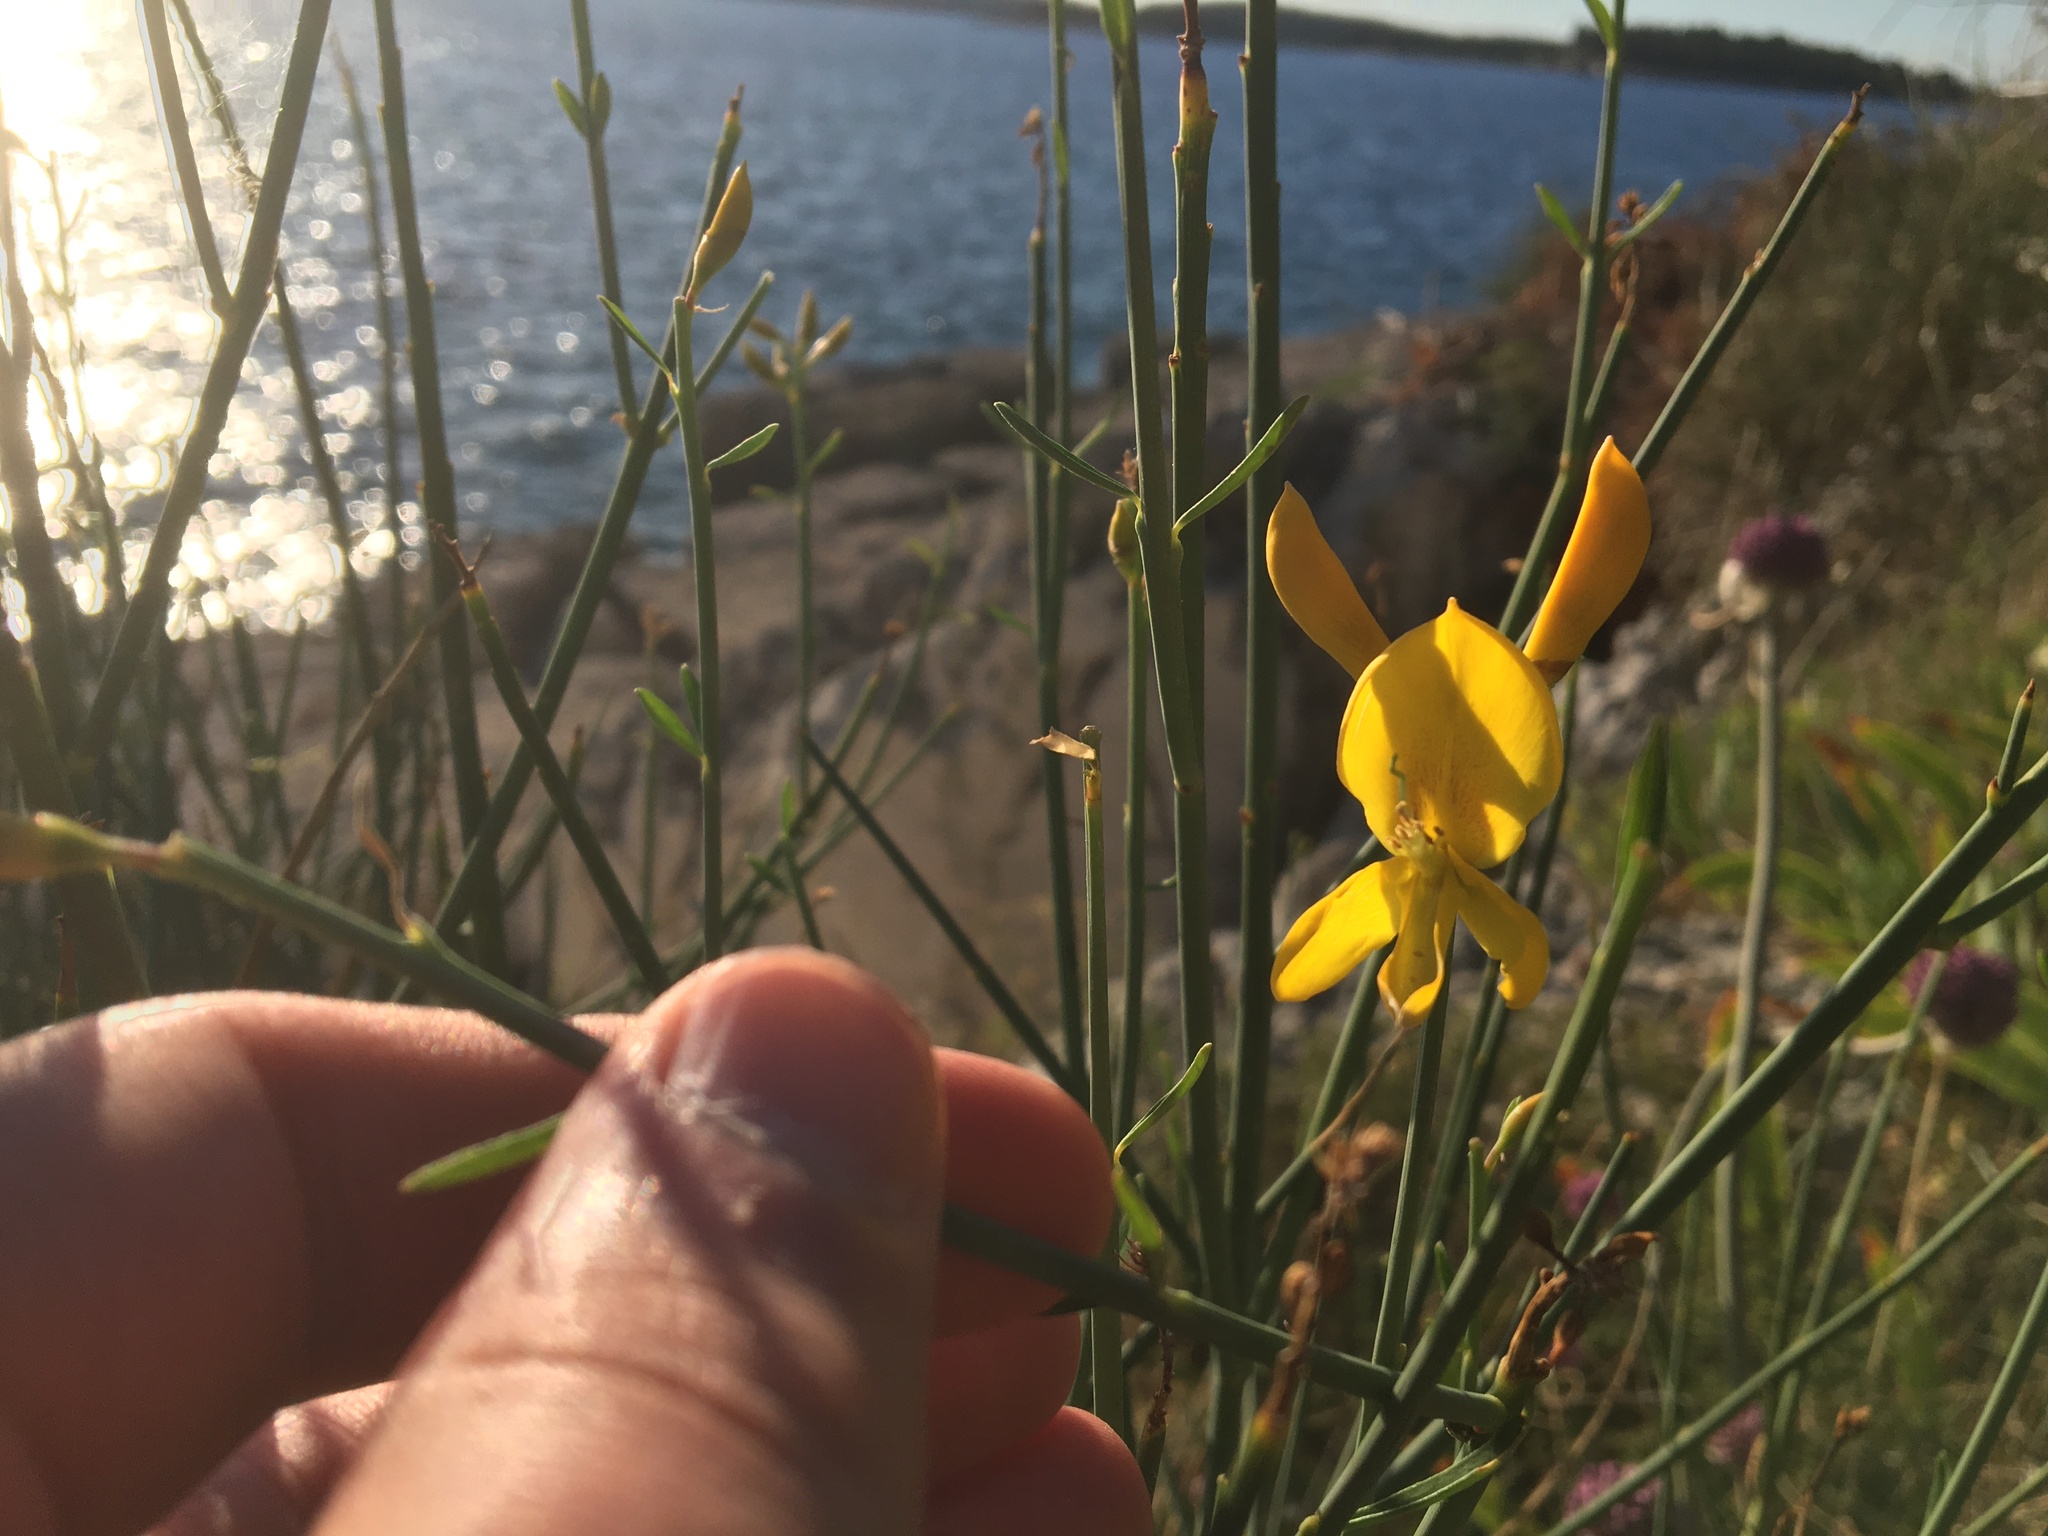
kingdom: Plantae
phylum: Tracheophyta
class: Magnoliopsida
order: Fabales
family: Fabaceae
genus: Spartium
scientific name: Spartium junceum
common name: Spanish broom
